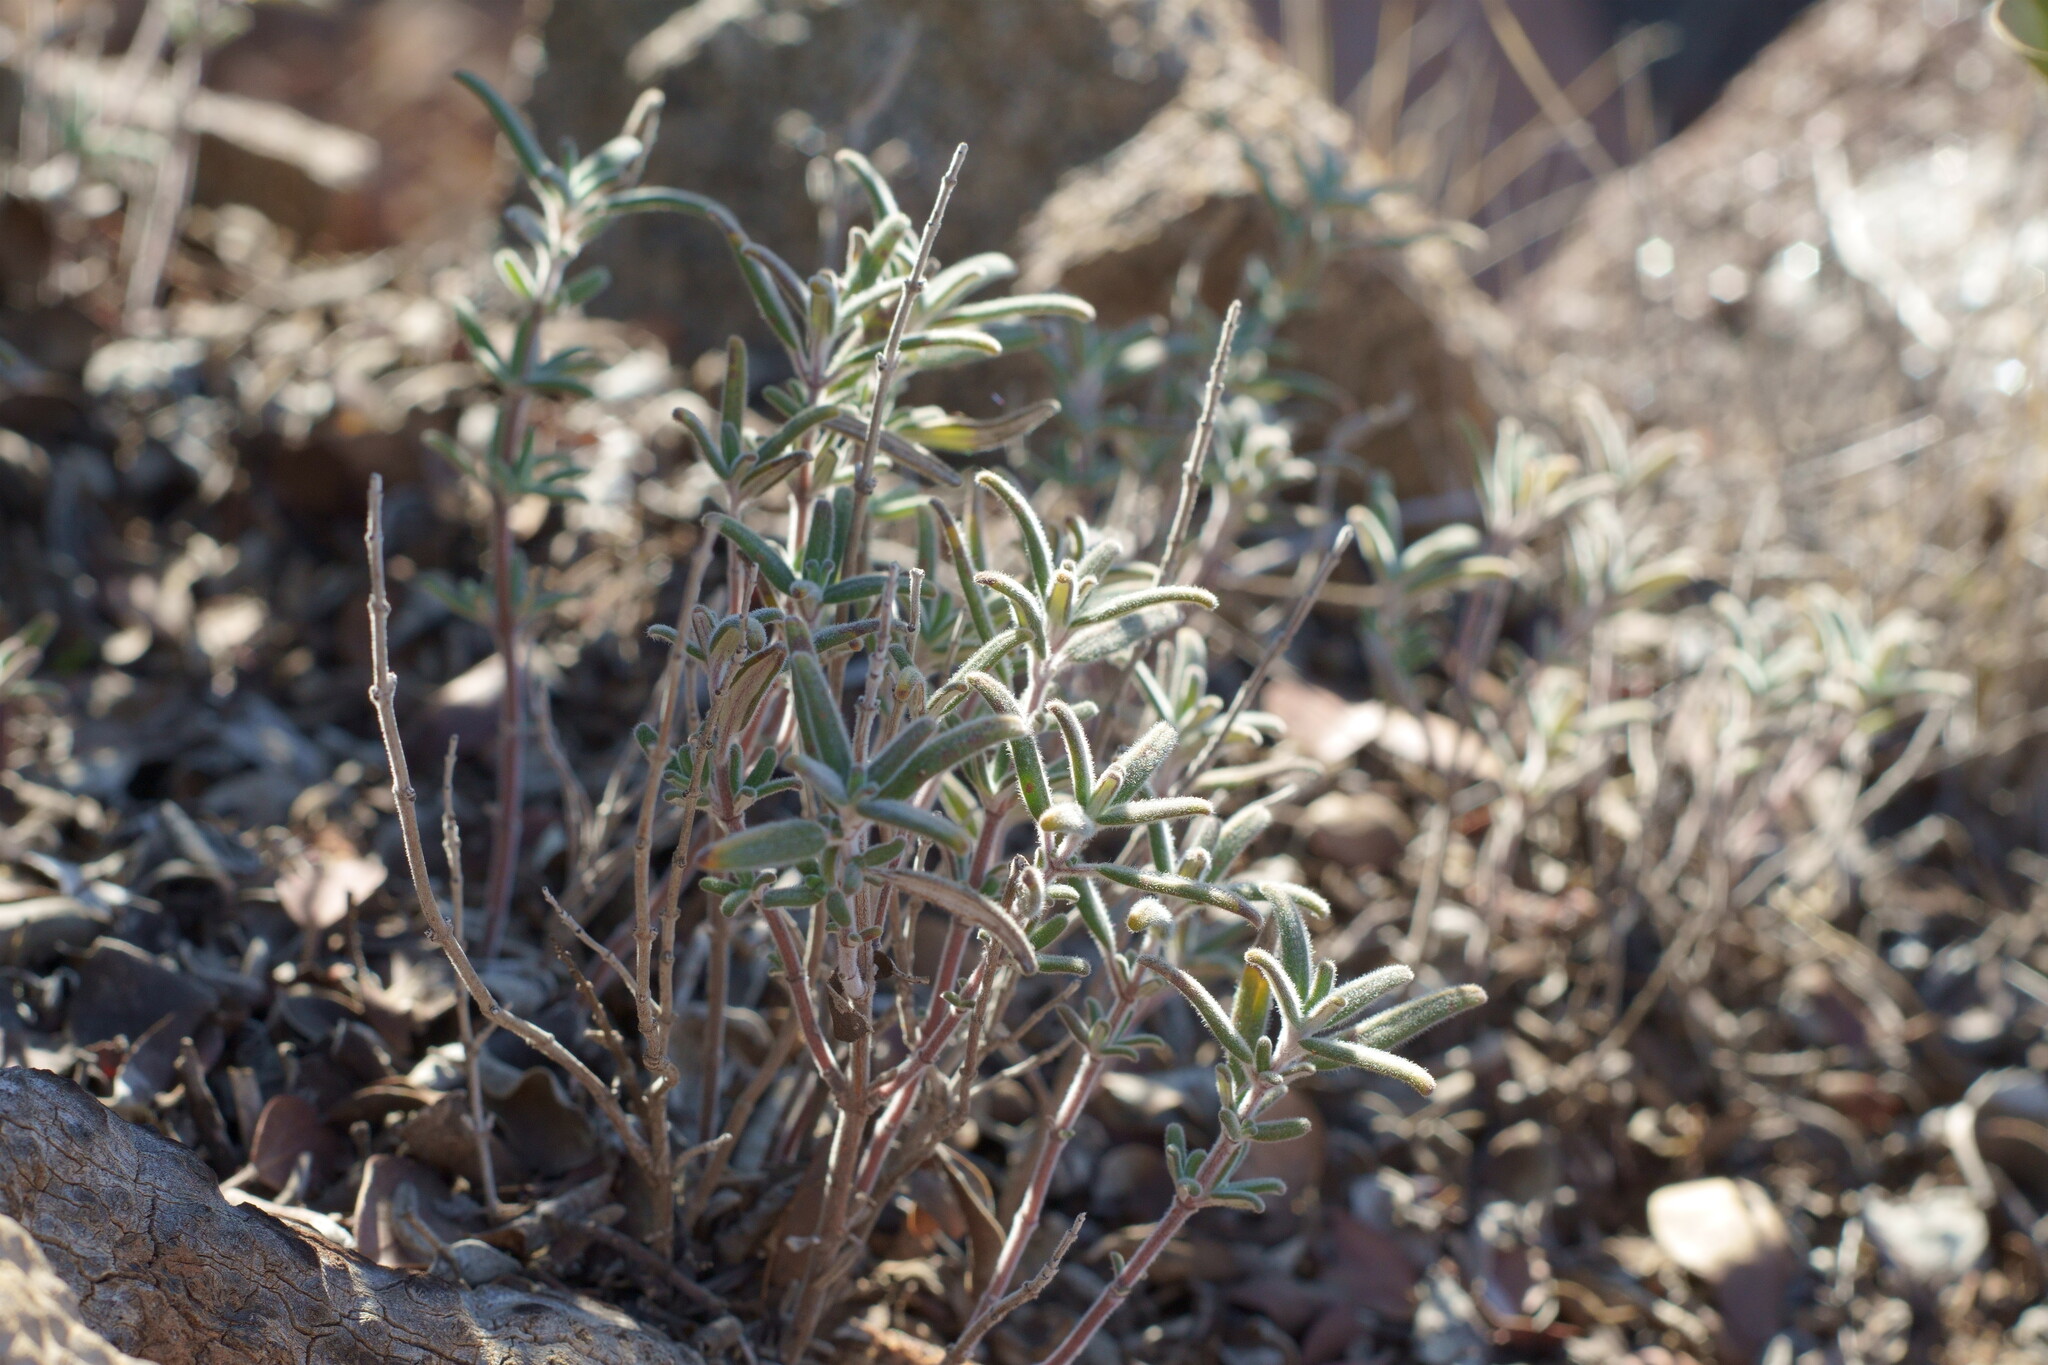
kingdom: Plantae
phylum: Tracheophyta
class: Magnoliopsida
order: Lamiales
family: Lamiaceae
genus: Monardella
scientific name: Monardella hypoleuca
